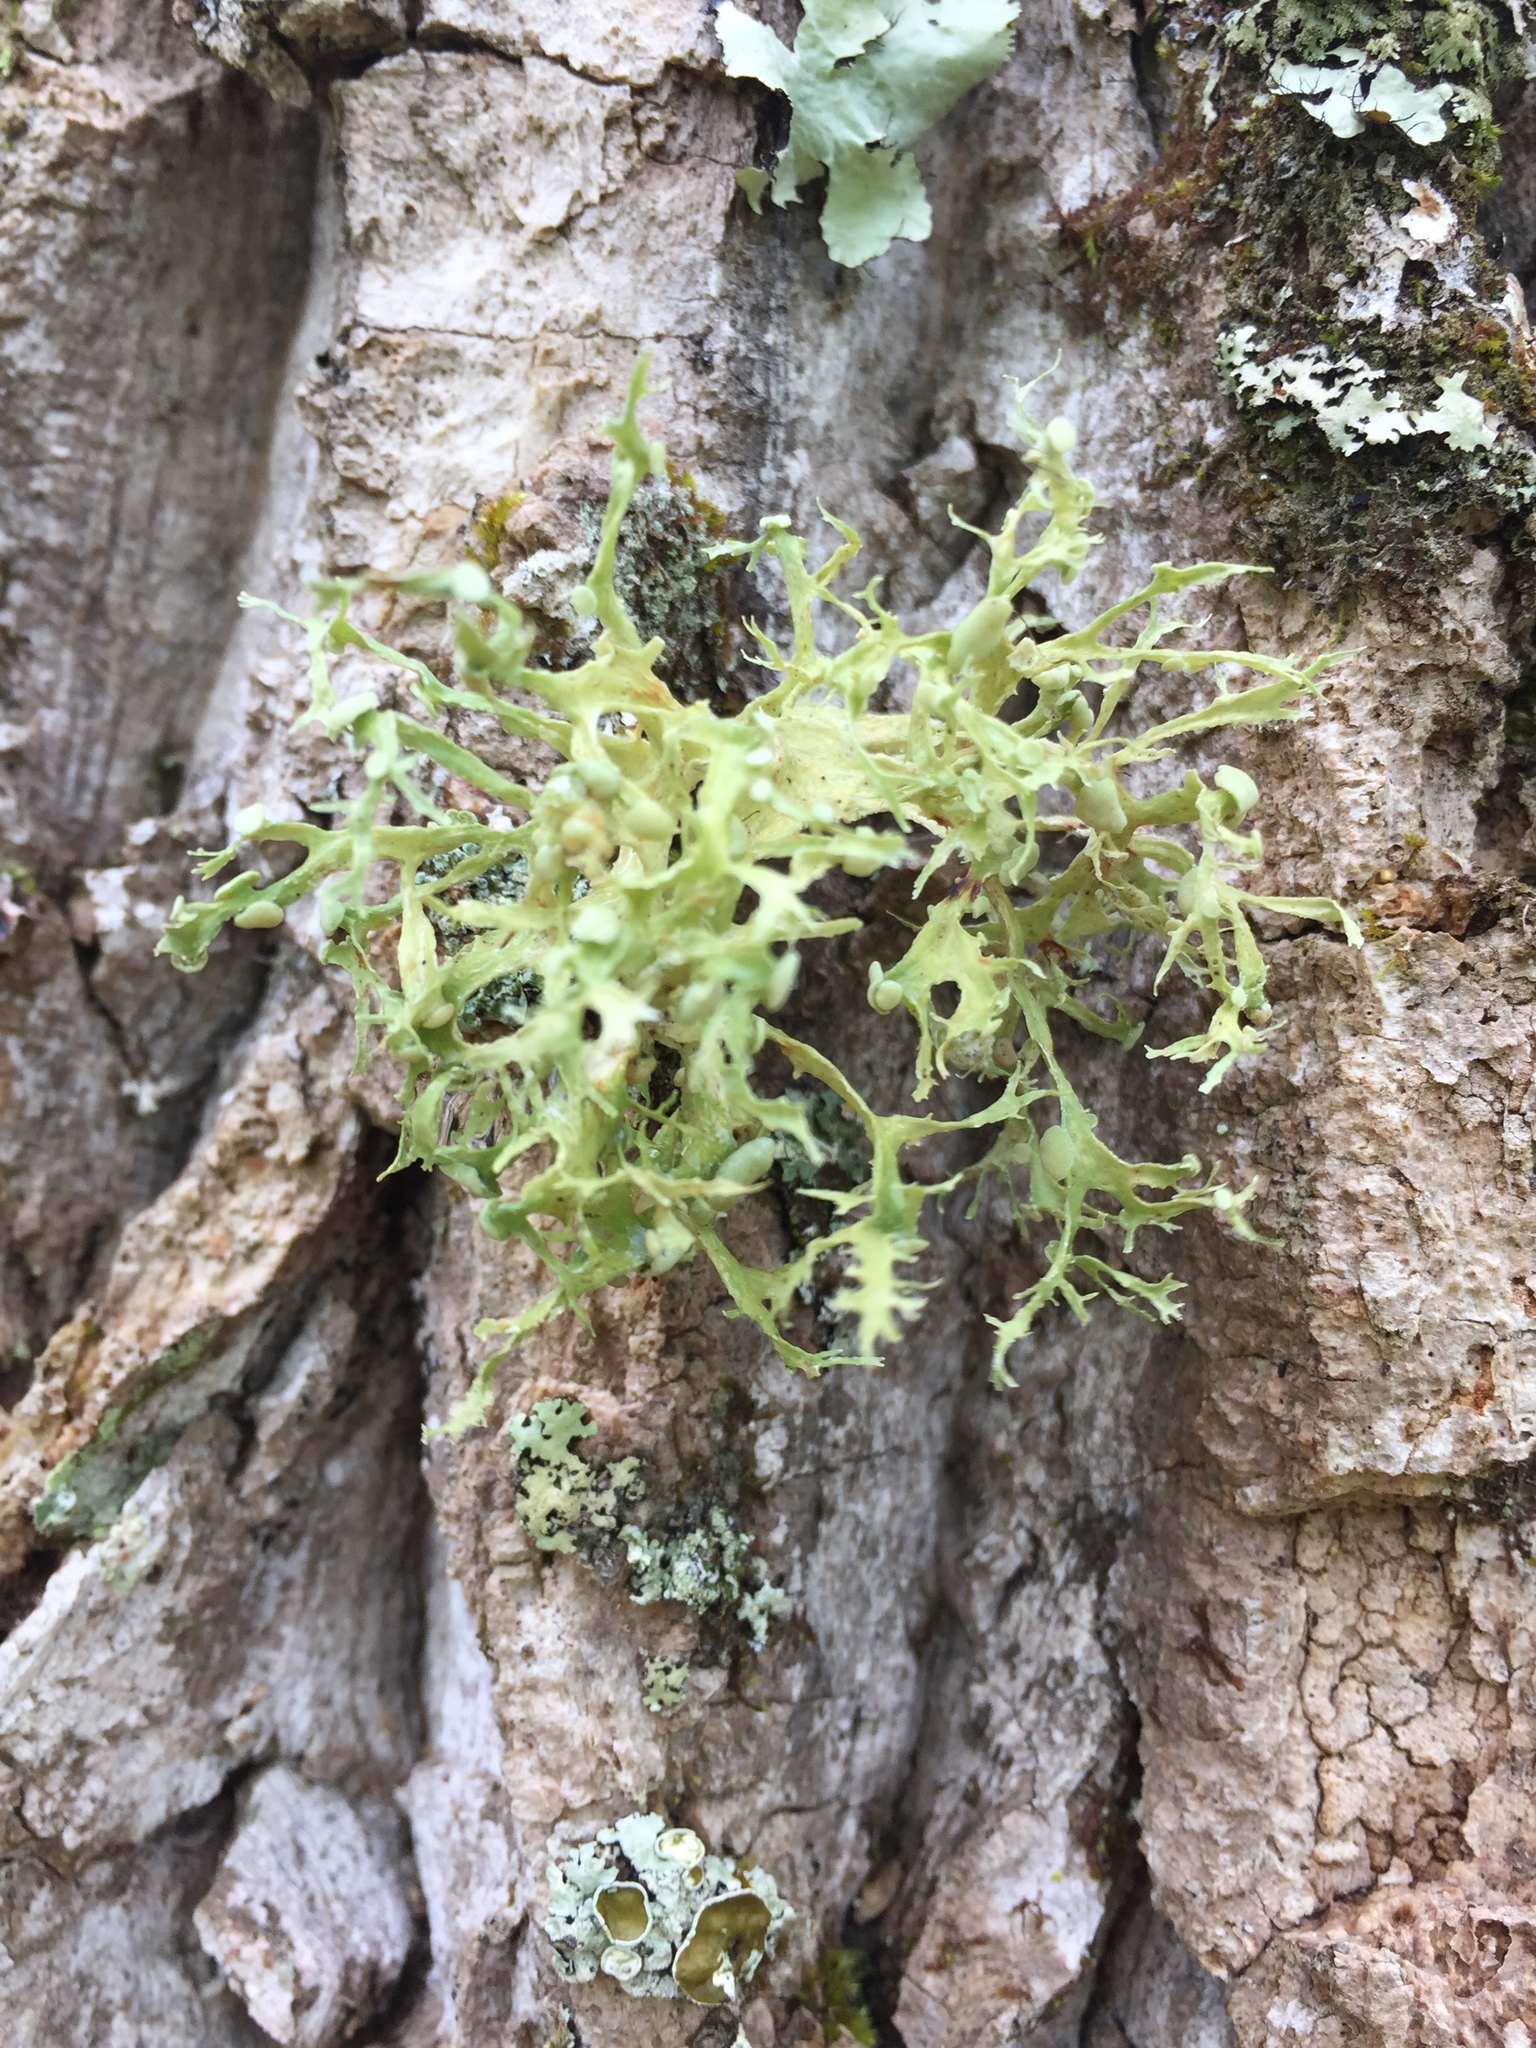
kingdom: Fungi
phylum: Ascomycota
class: Lecanoromycetes
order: Lecanorales
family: Ramalinaceae
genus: Ramalina
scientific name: Ramalina americana
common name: Sinewed bush lichen
